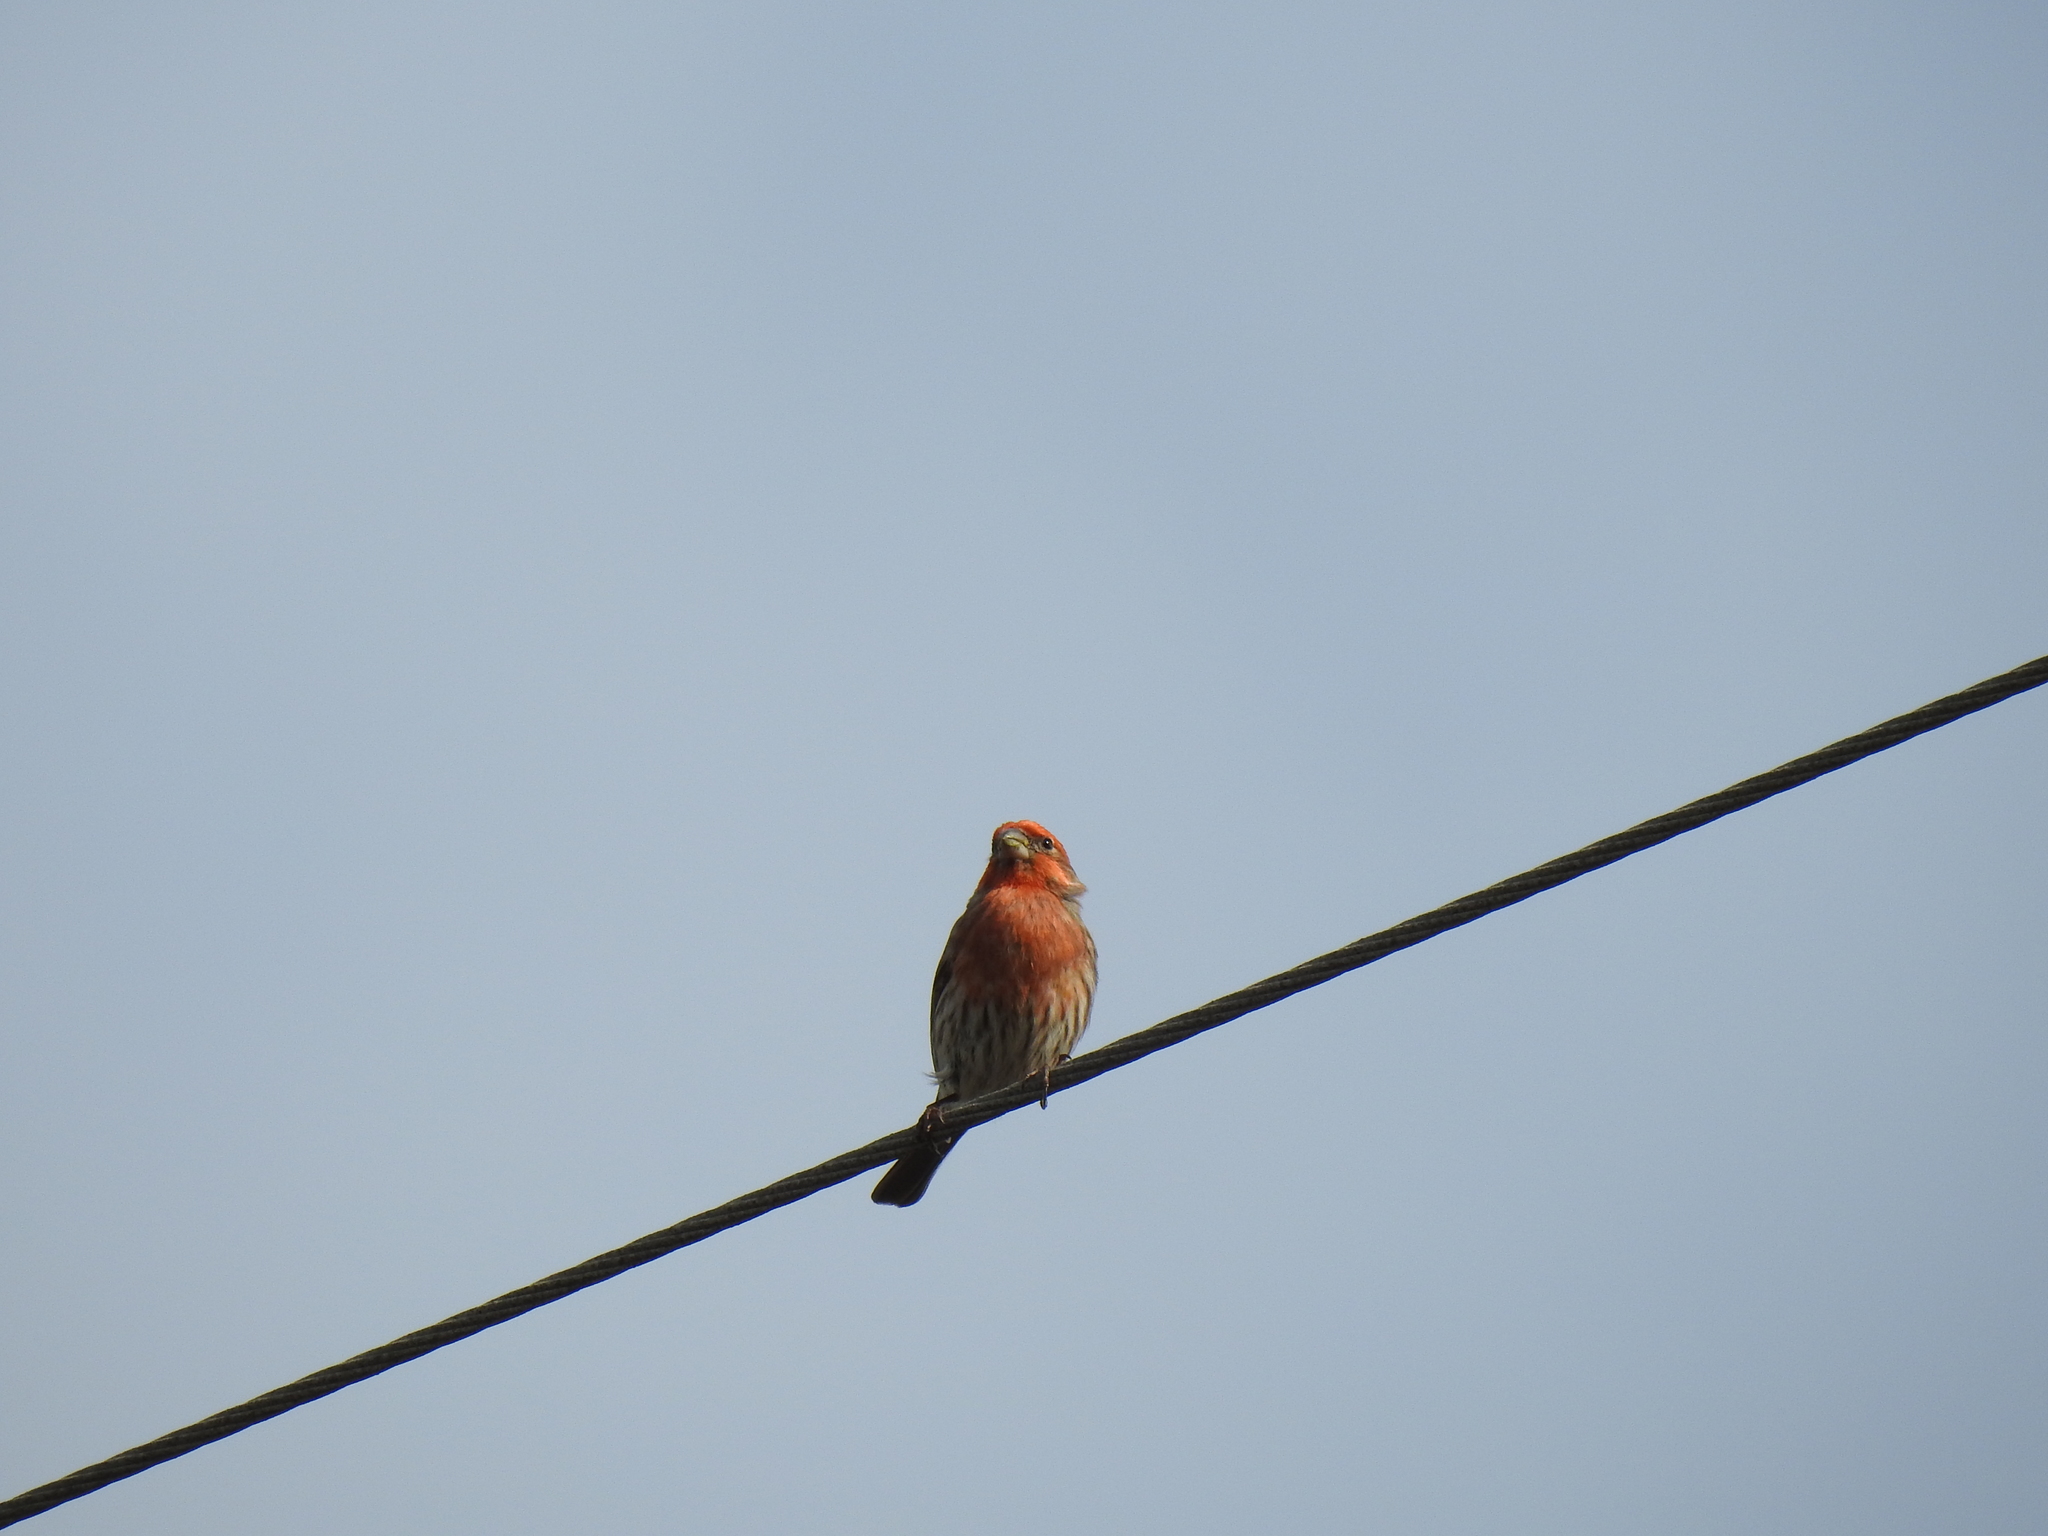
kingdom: Animalia
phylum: Chordata
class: Aves
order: Passeriformes
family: Fringillidae
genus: Haemorhous
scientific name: Haemorhous mexicanus
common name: House finch
